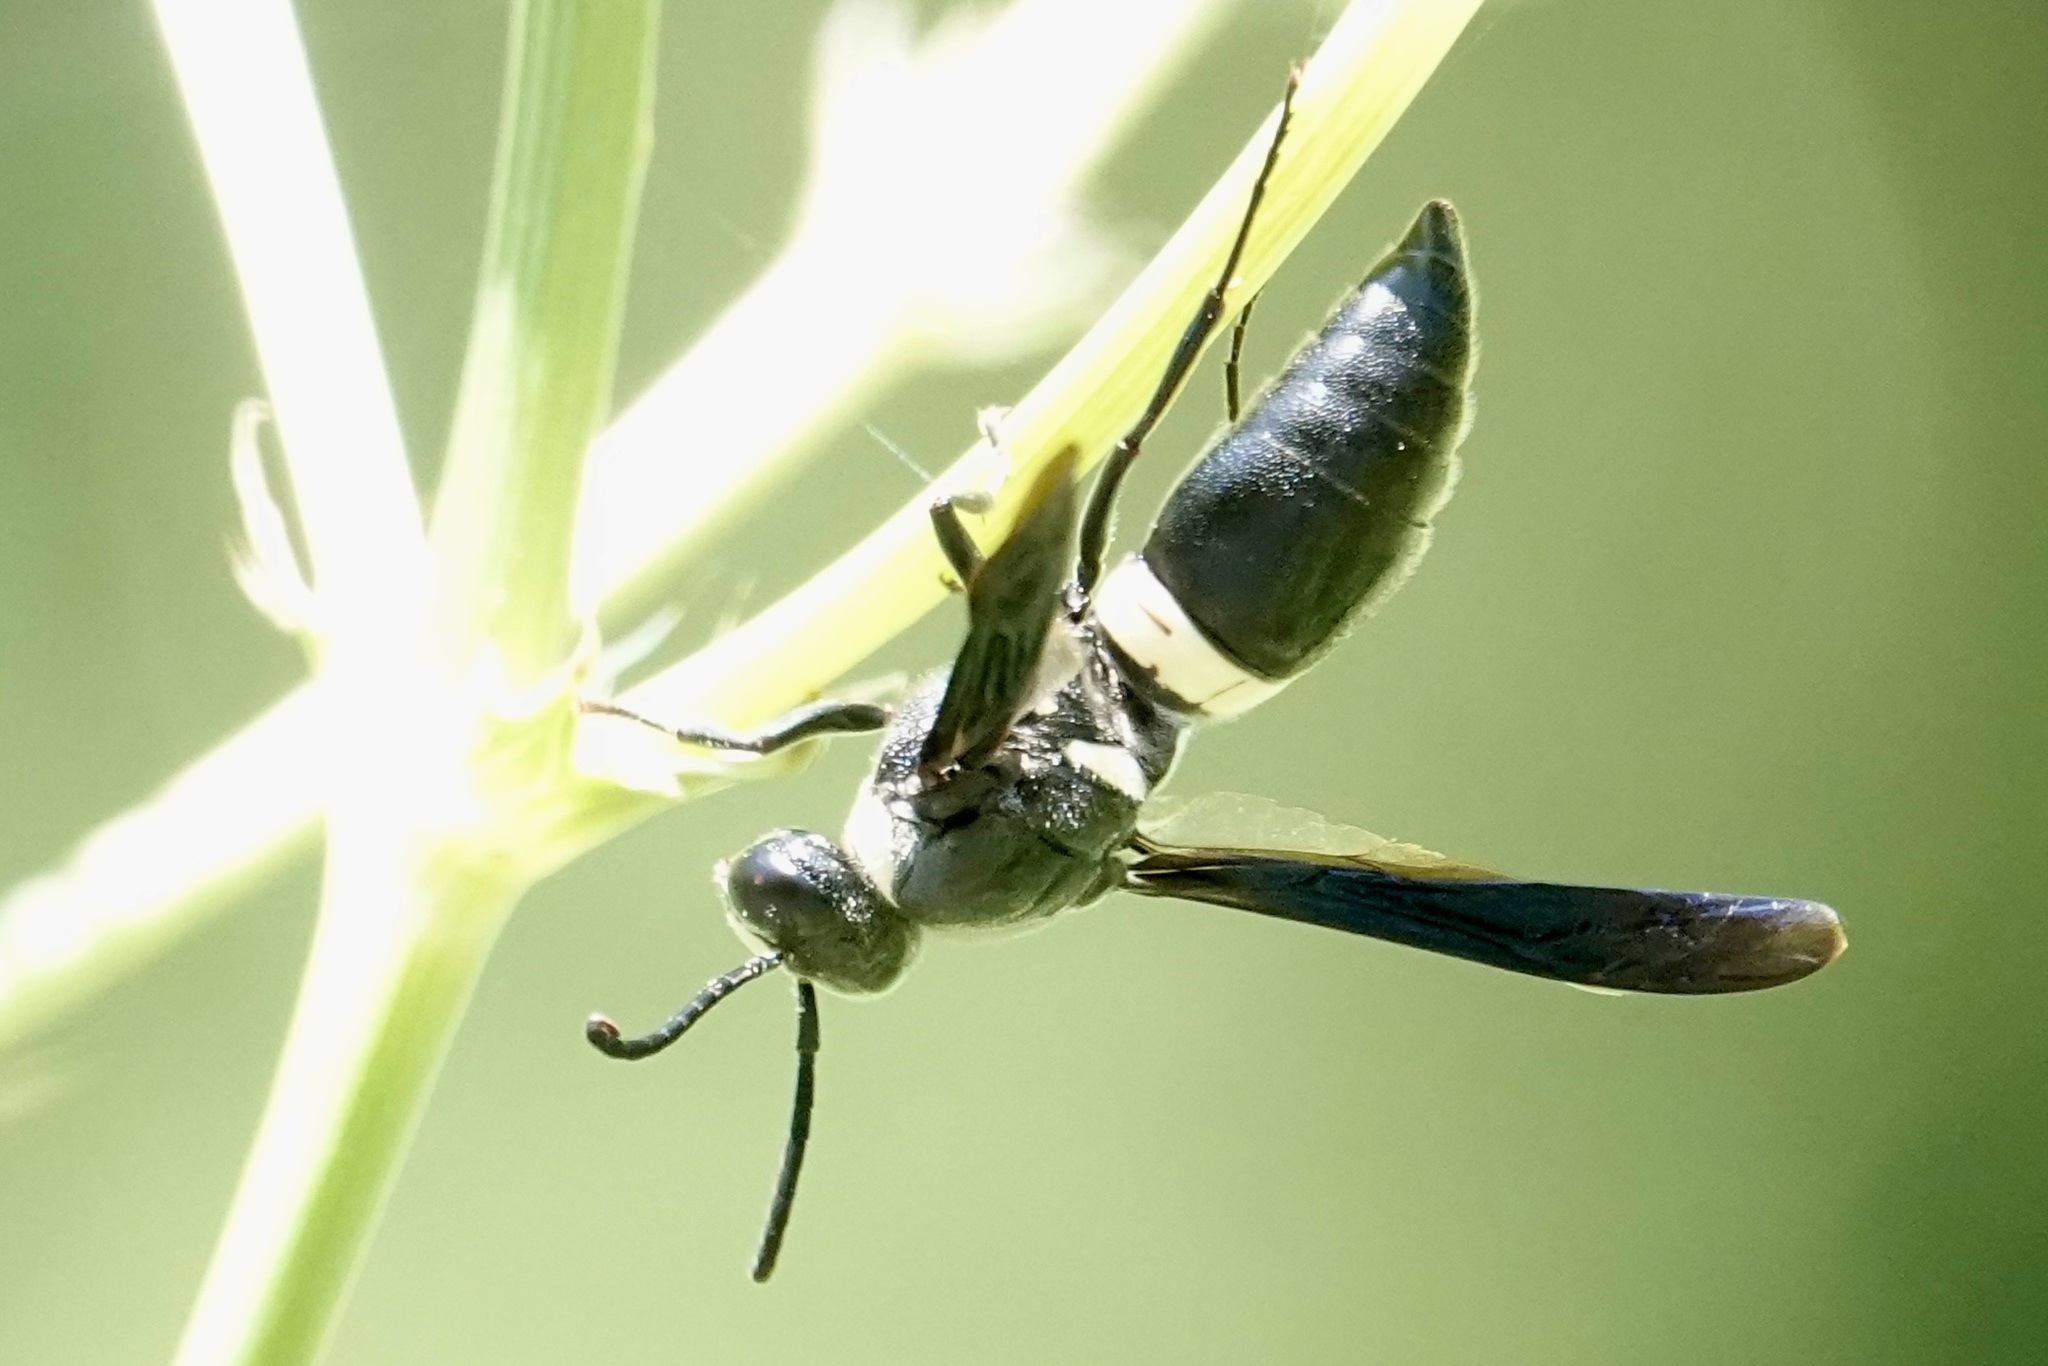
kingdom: Animalia
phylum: Arthropoda
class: Insecta
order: Hymenoptera
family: Eumenidae
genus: Monobia
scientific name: Monobia quadridens
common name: Four-toothed mason wasp
